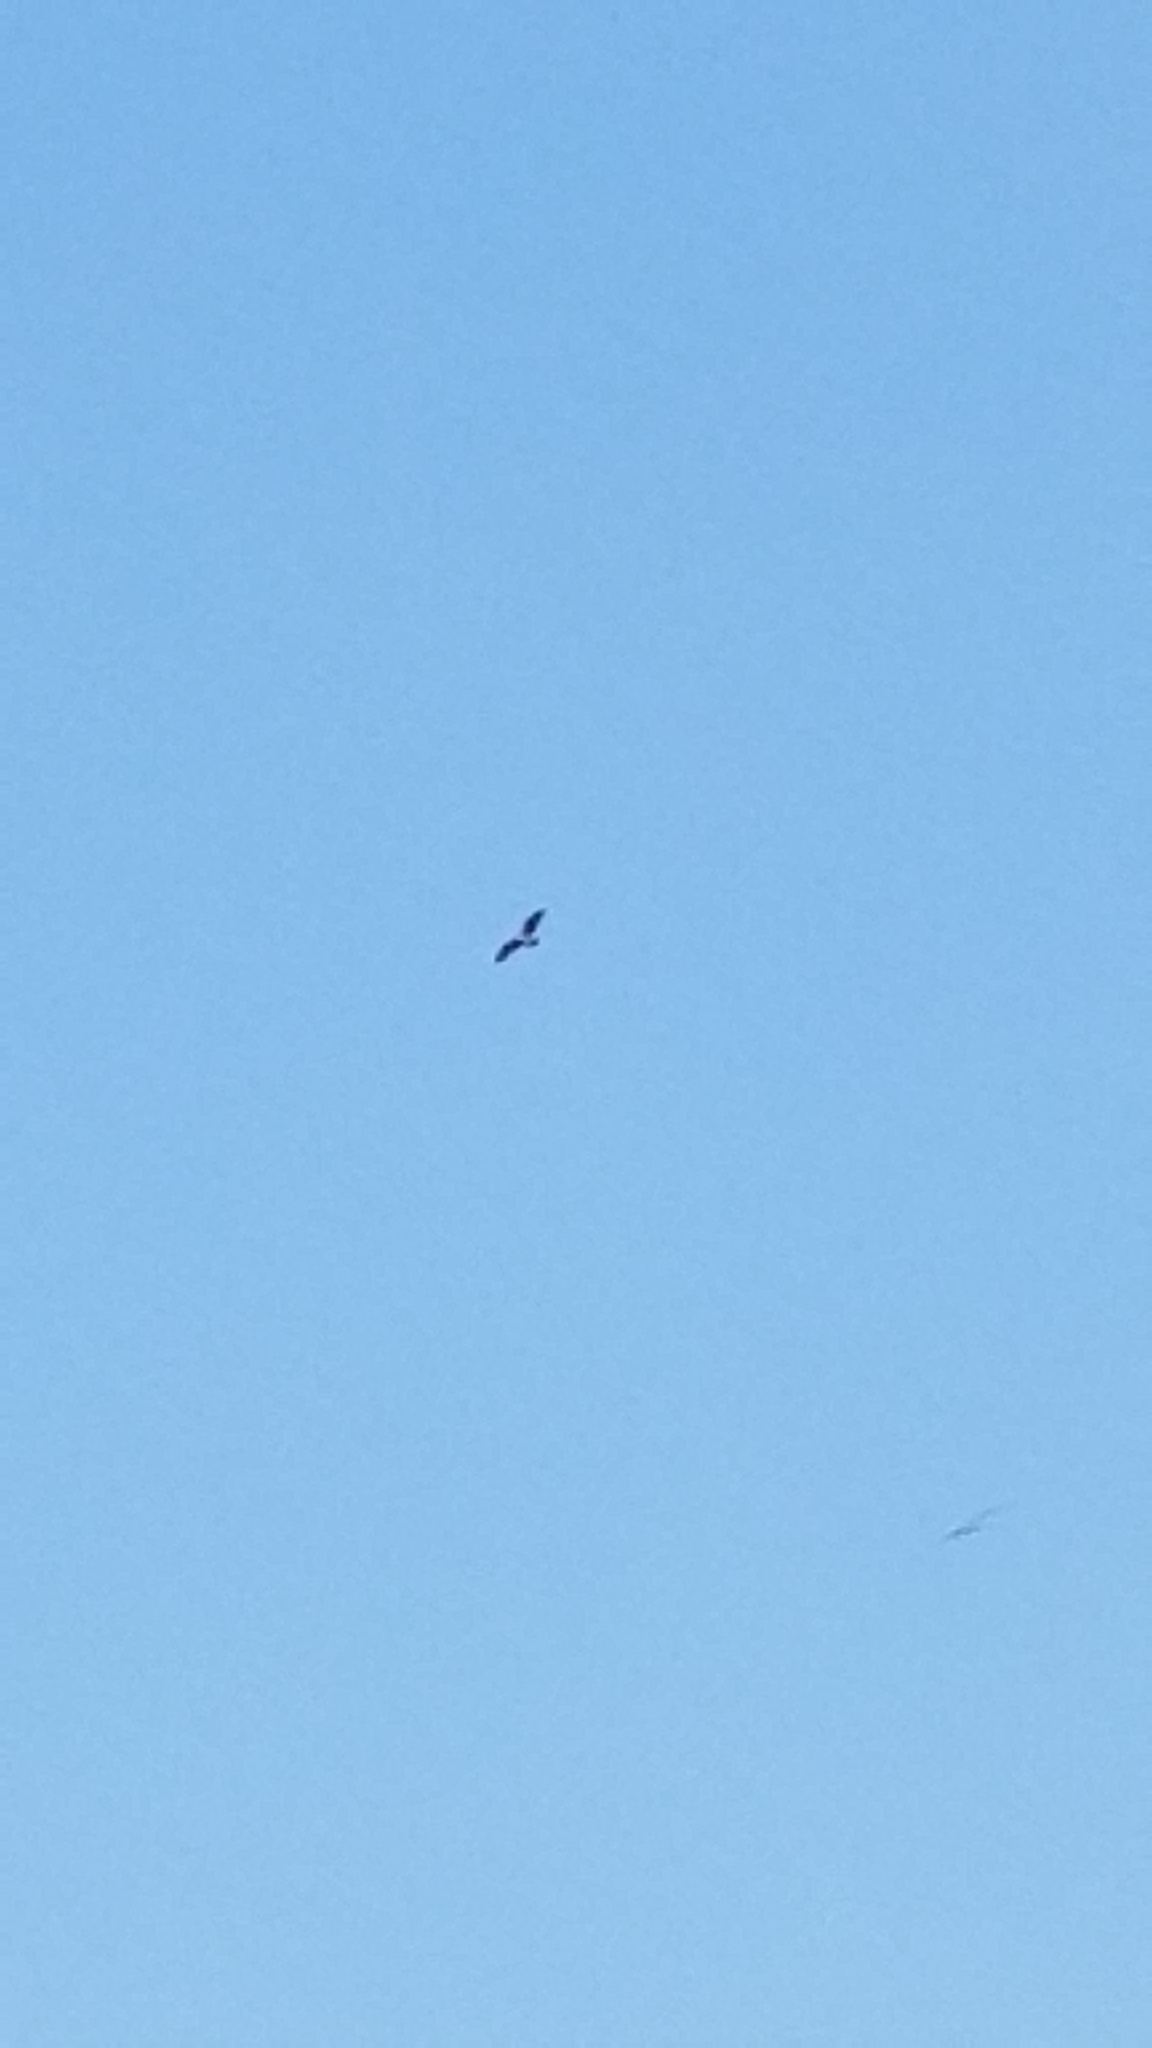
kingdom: Animalia
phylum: Chordata
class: Aves
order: Accipitriformes
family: Pandionidae
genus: Pandion
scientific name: Pandion haliaetus
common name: Osprey
